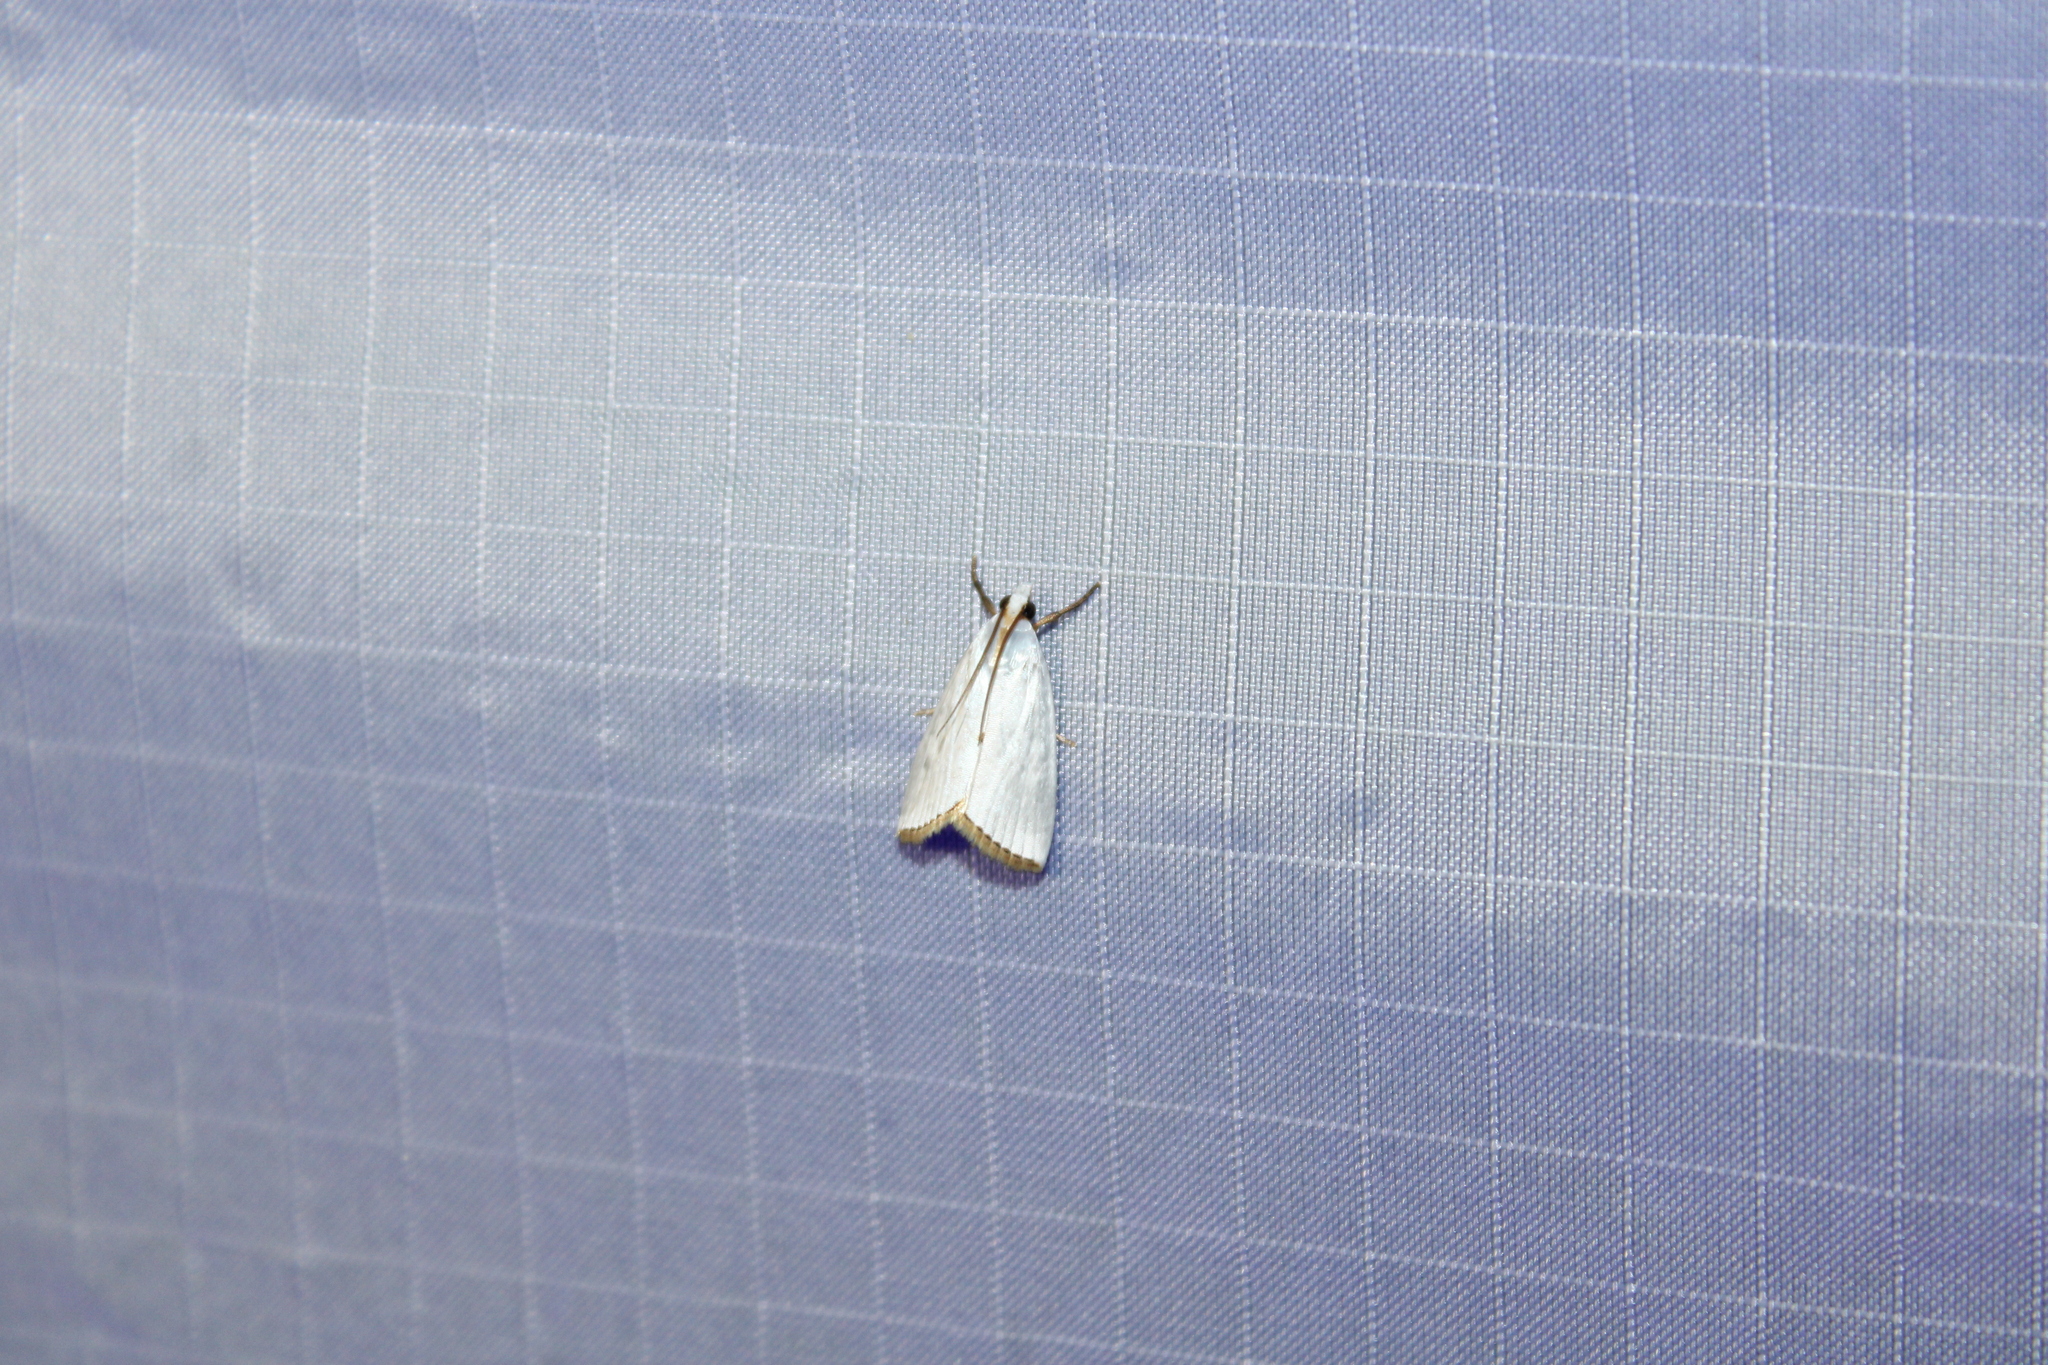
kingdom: Animalia
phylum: Arthropoda
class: Insecta
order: Lepidoptera
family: Crambidae
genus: Argyria
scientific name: Argyria nivalis
